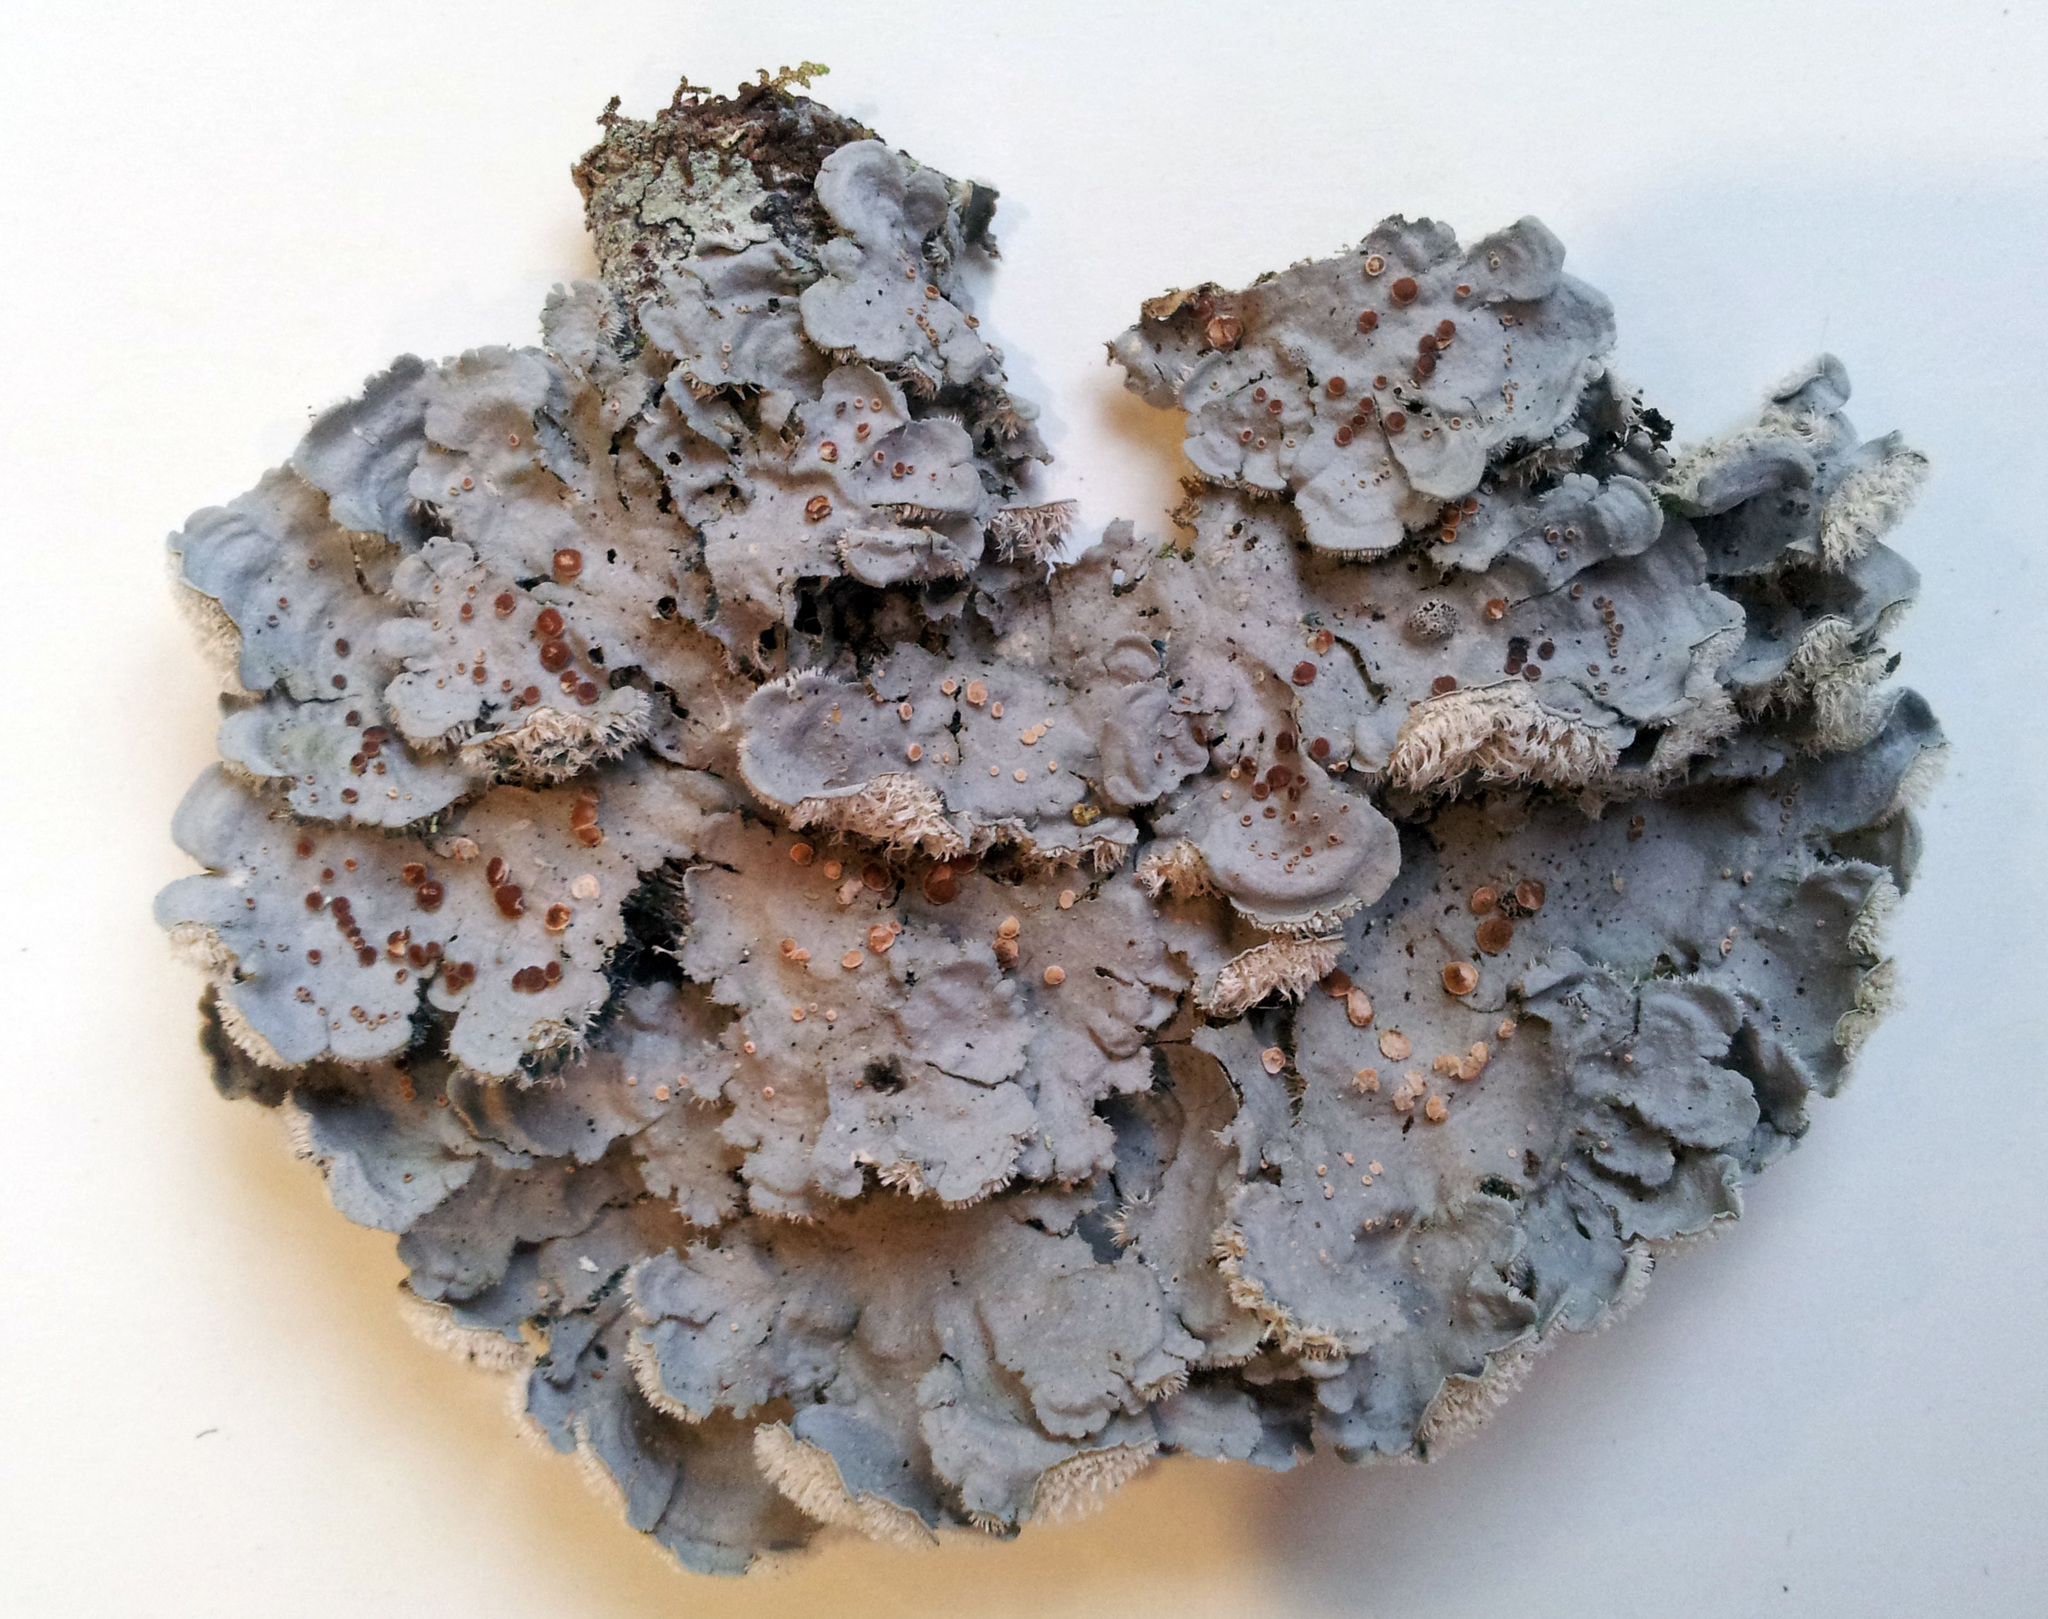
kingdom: Fungi
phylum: Ascomycota
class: Lecanoromycetes
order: Peltigerales
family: Pannariaceae
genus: Degelia
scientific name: Degelia gayana
